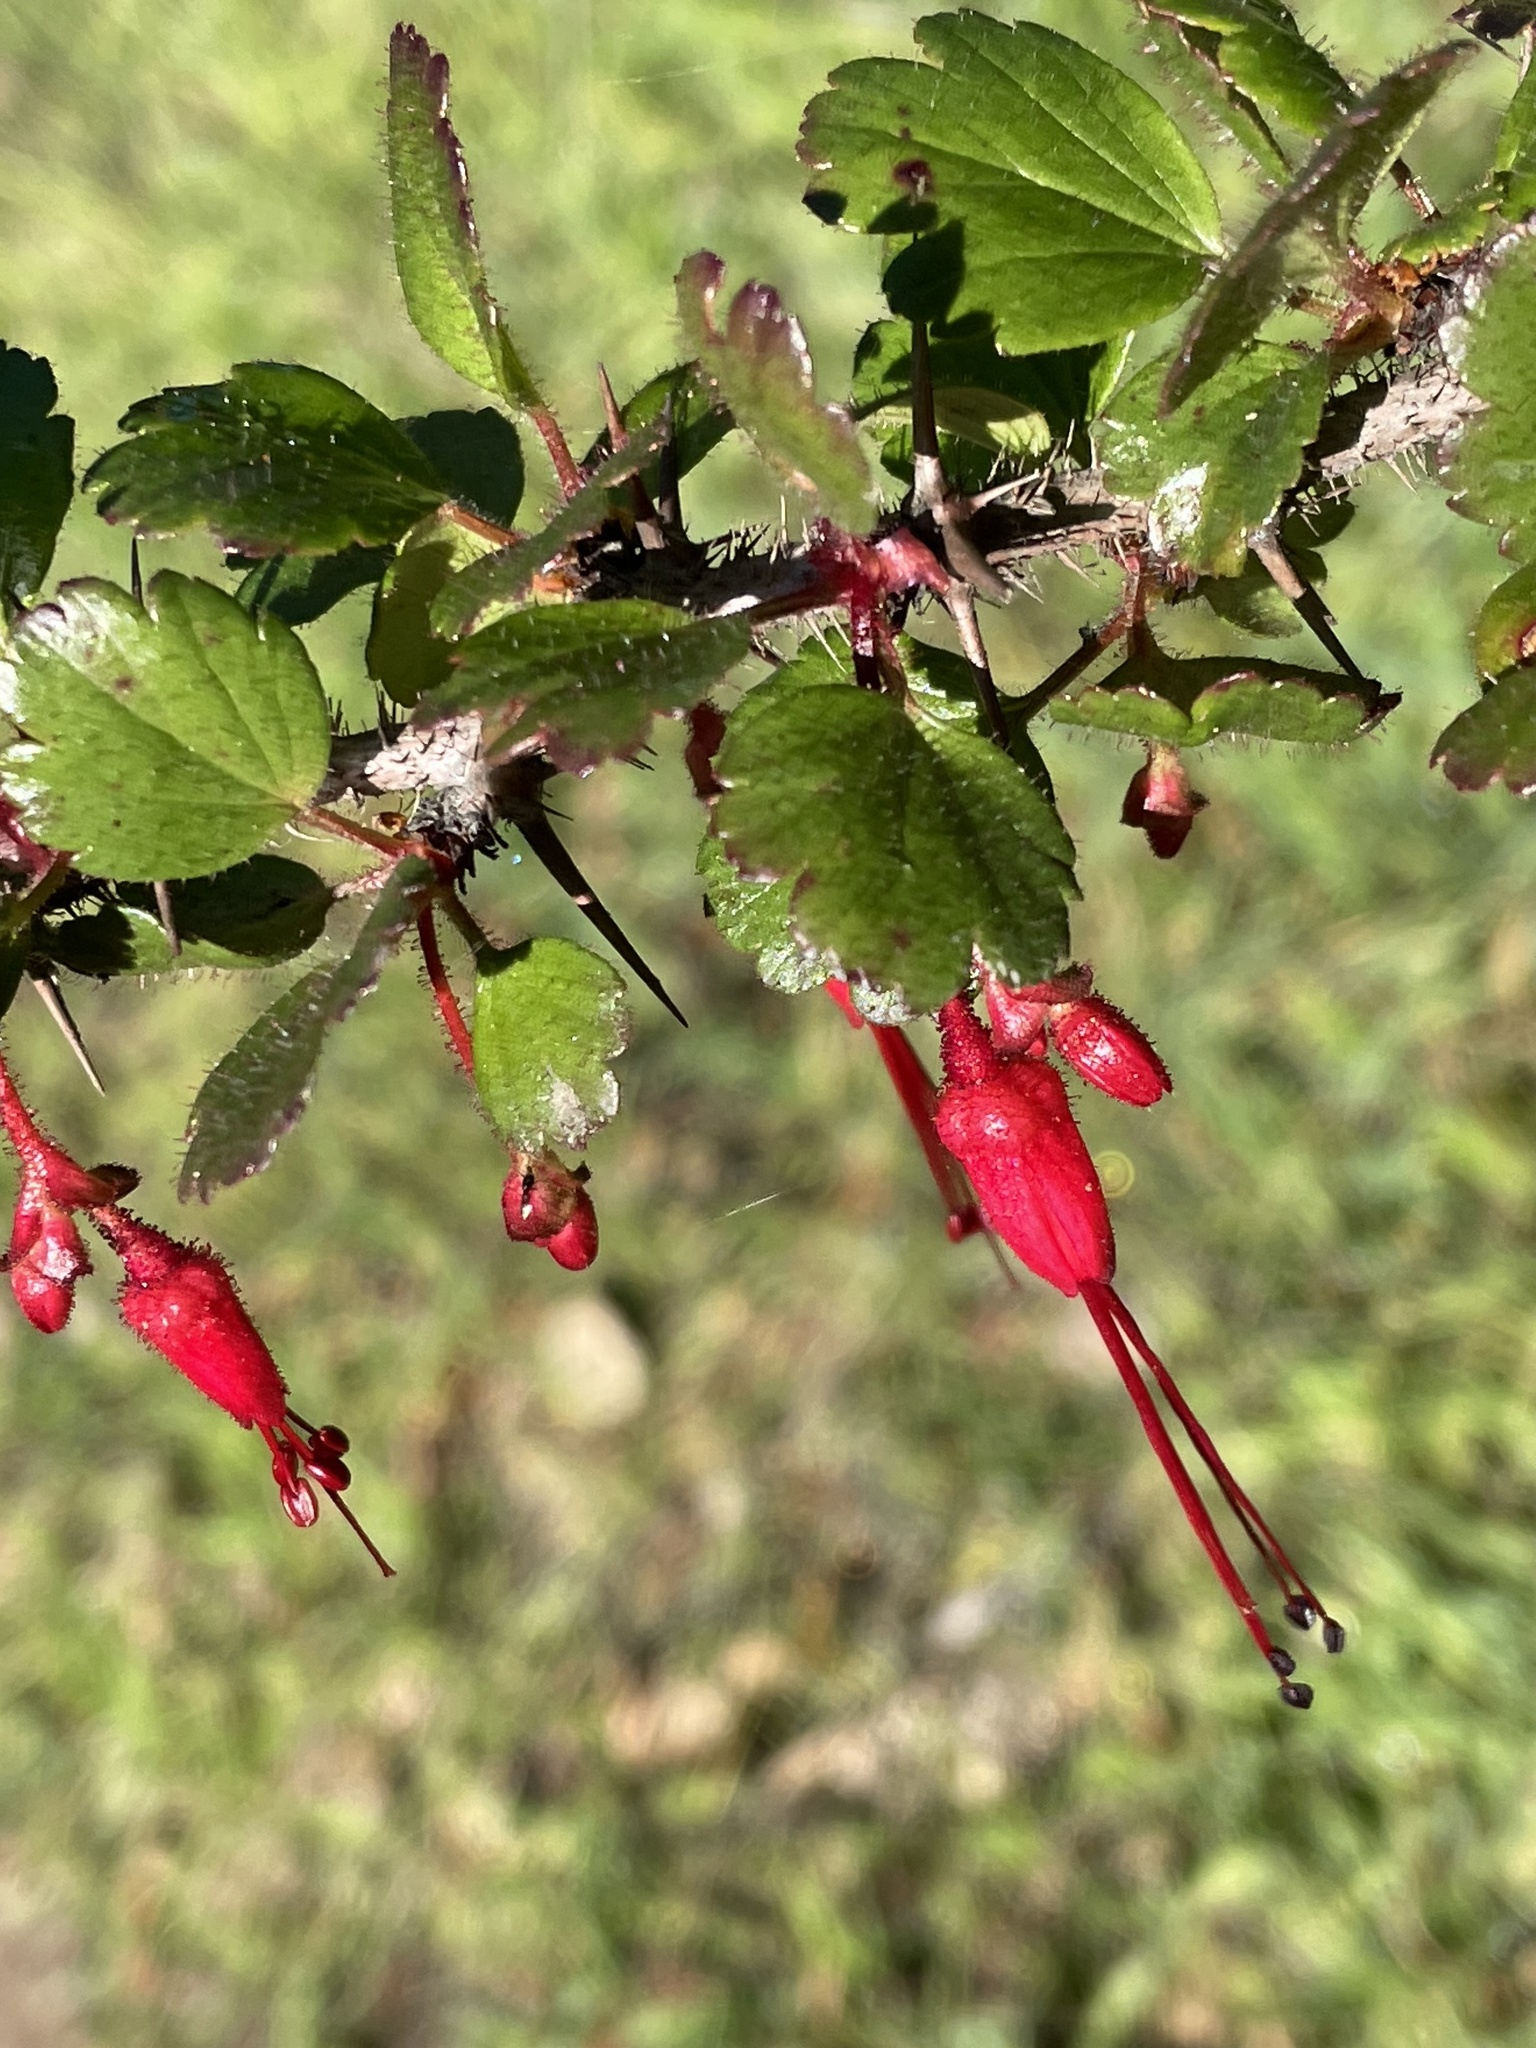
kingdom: Plantae
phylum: Tracheophyta
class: Magnoliopsida
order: Saxifragales
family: Grossulariaceae
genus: Ribes
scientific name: Ribes speciosum
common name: Fuchsia-flower gooseberry
